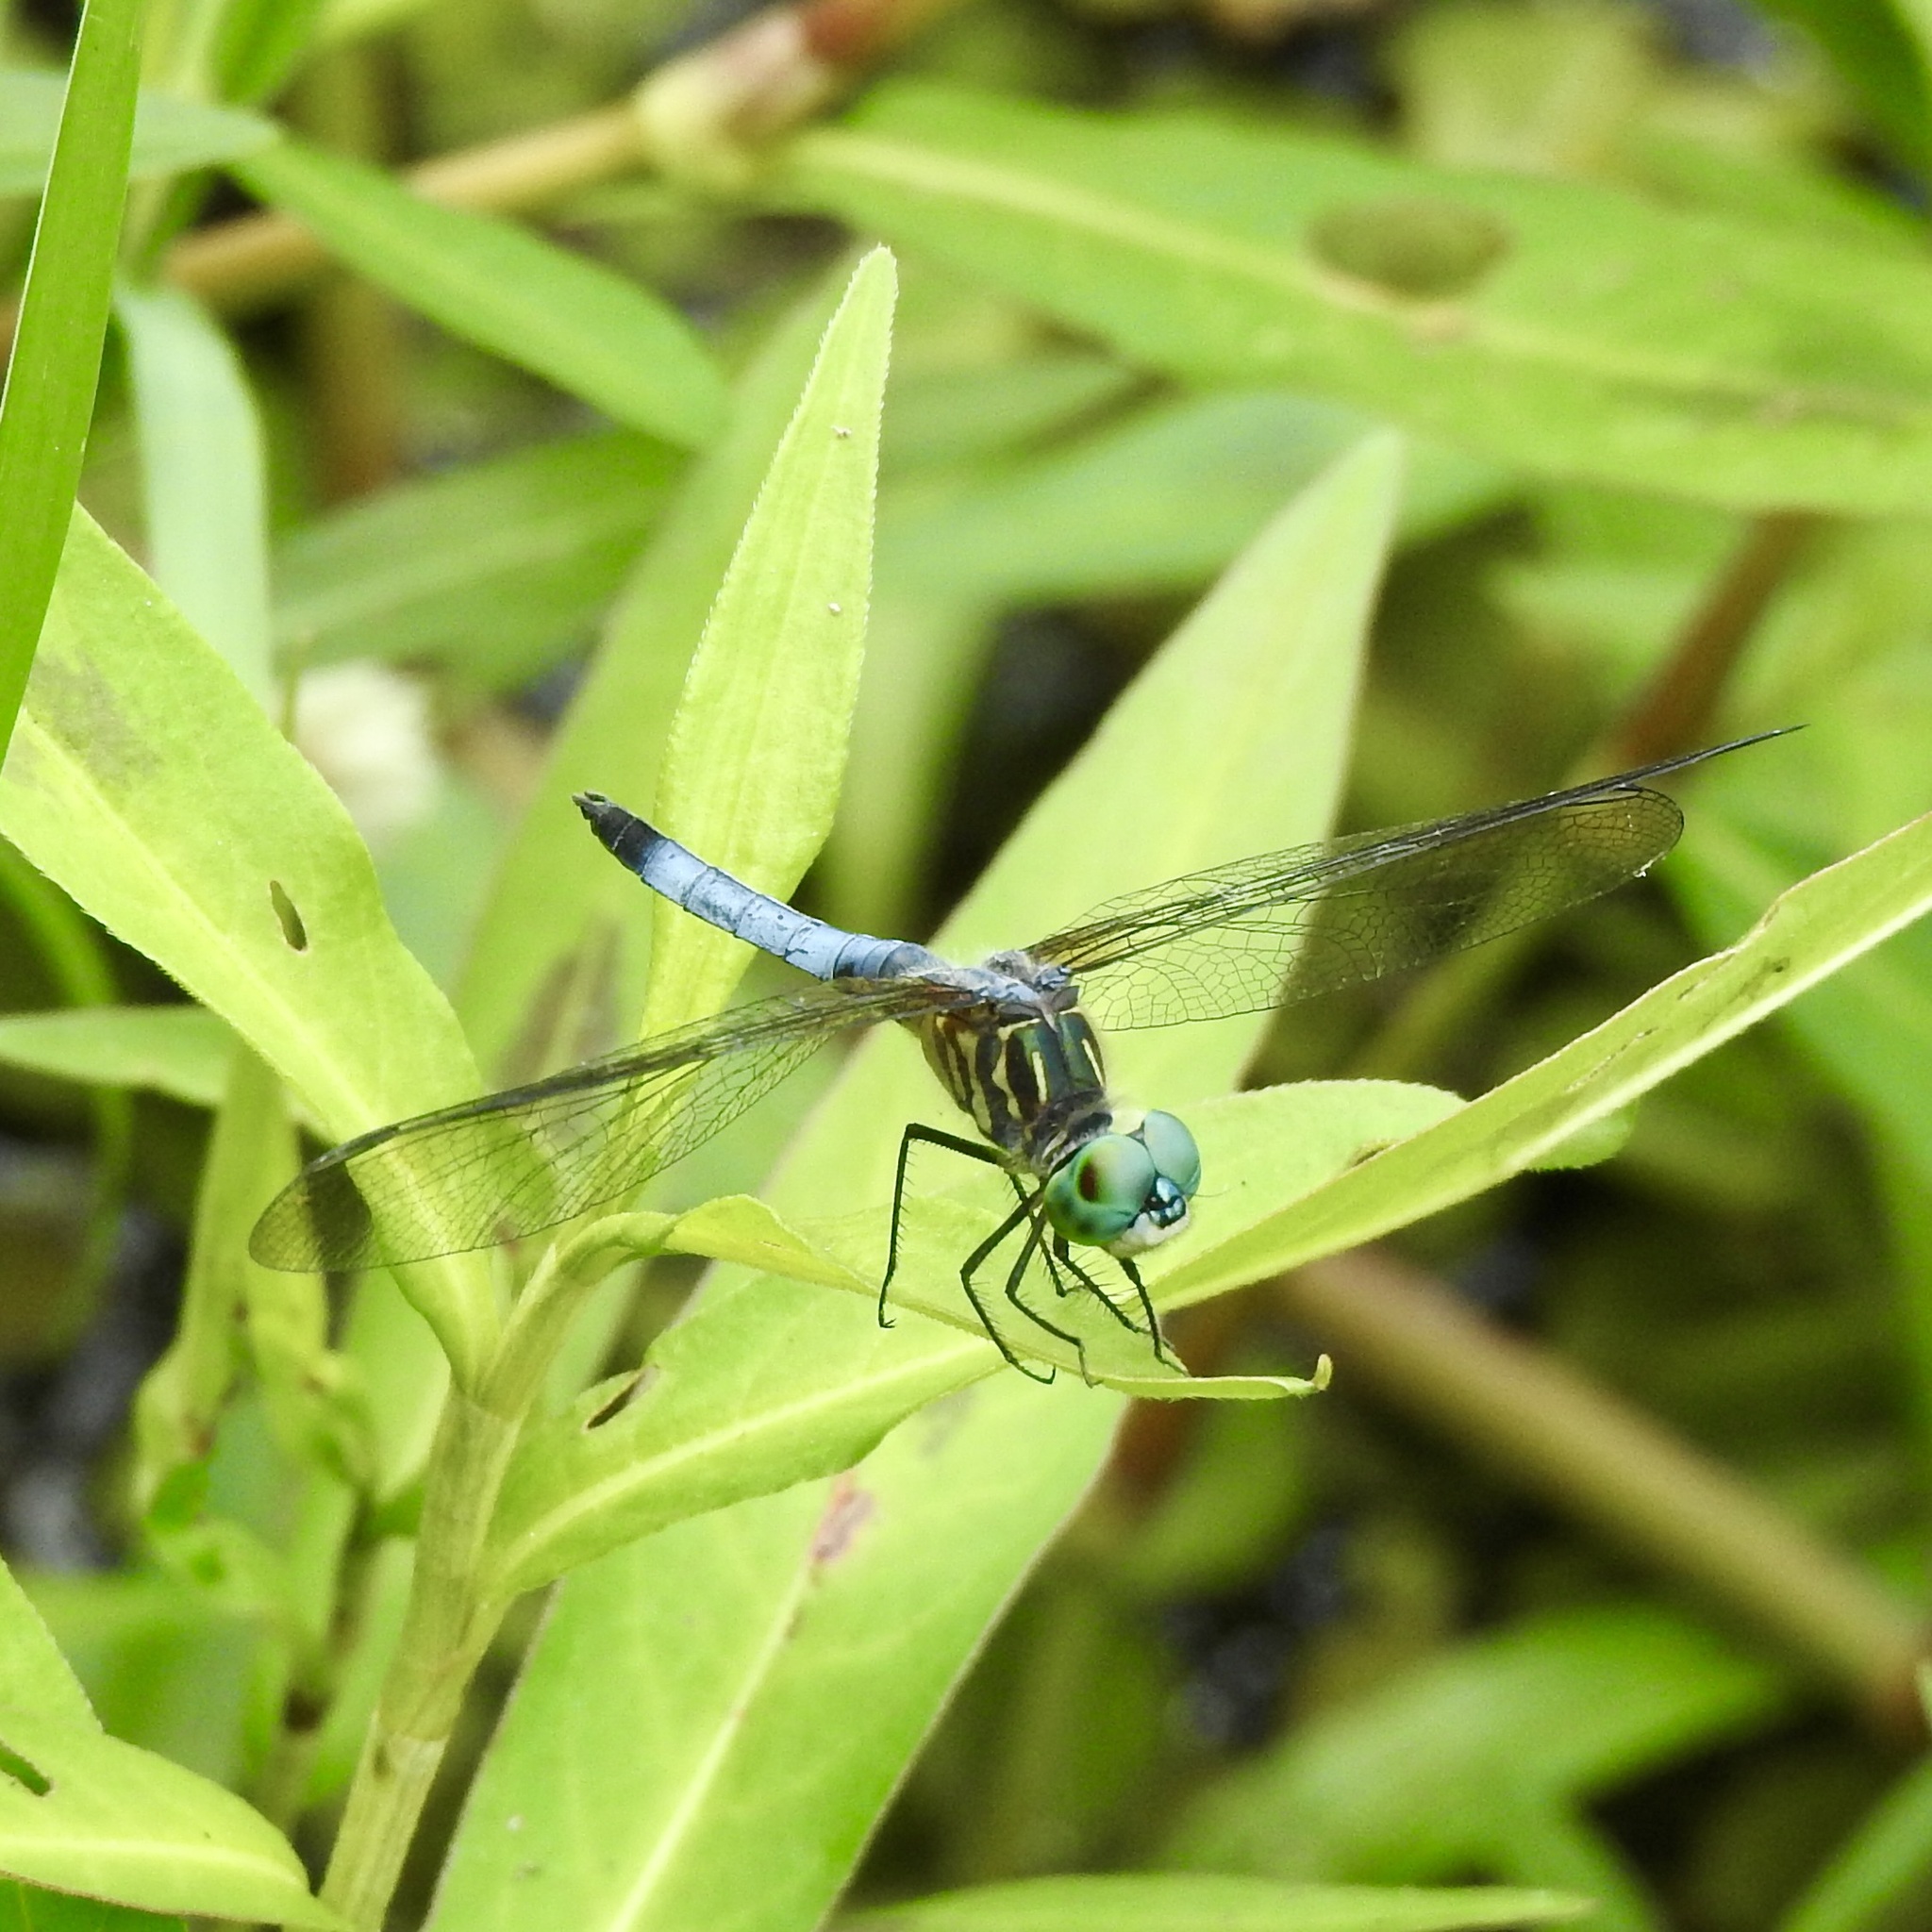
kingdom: Animalia
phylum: Arthropoda
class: Insecta
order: Odonata
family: Libellulidae
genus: Pachydiplax
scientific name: Pachydiplax longipennis
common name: Blue dasher
